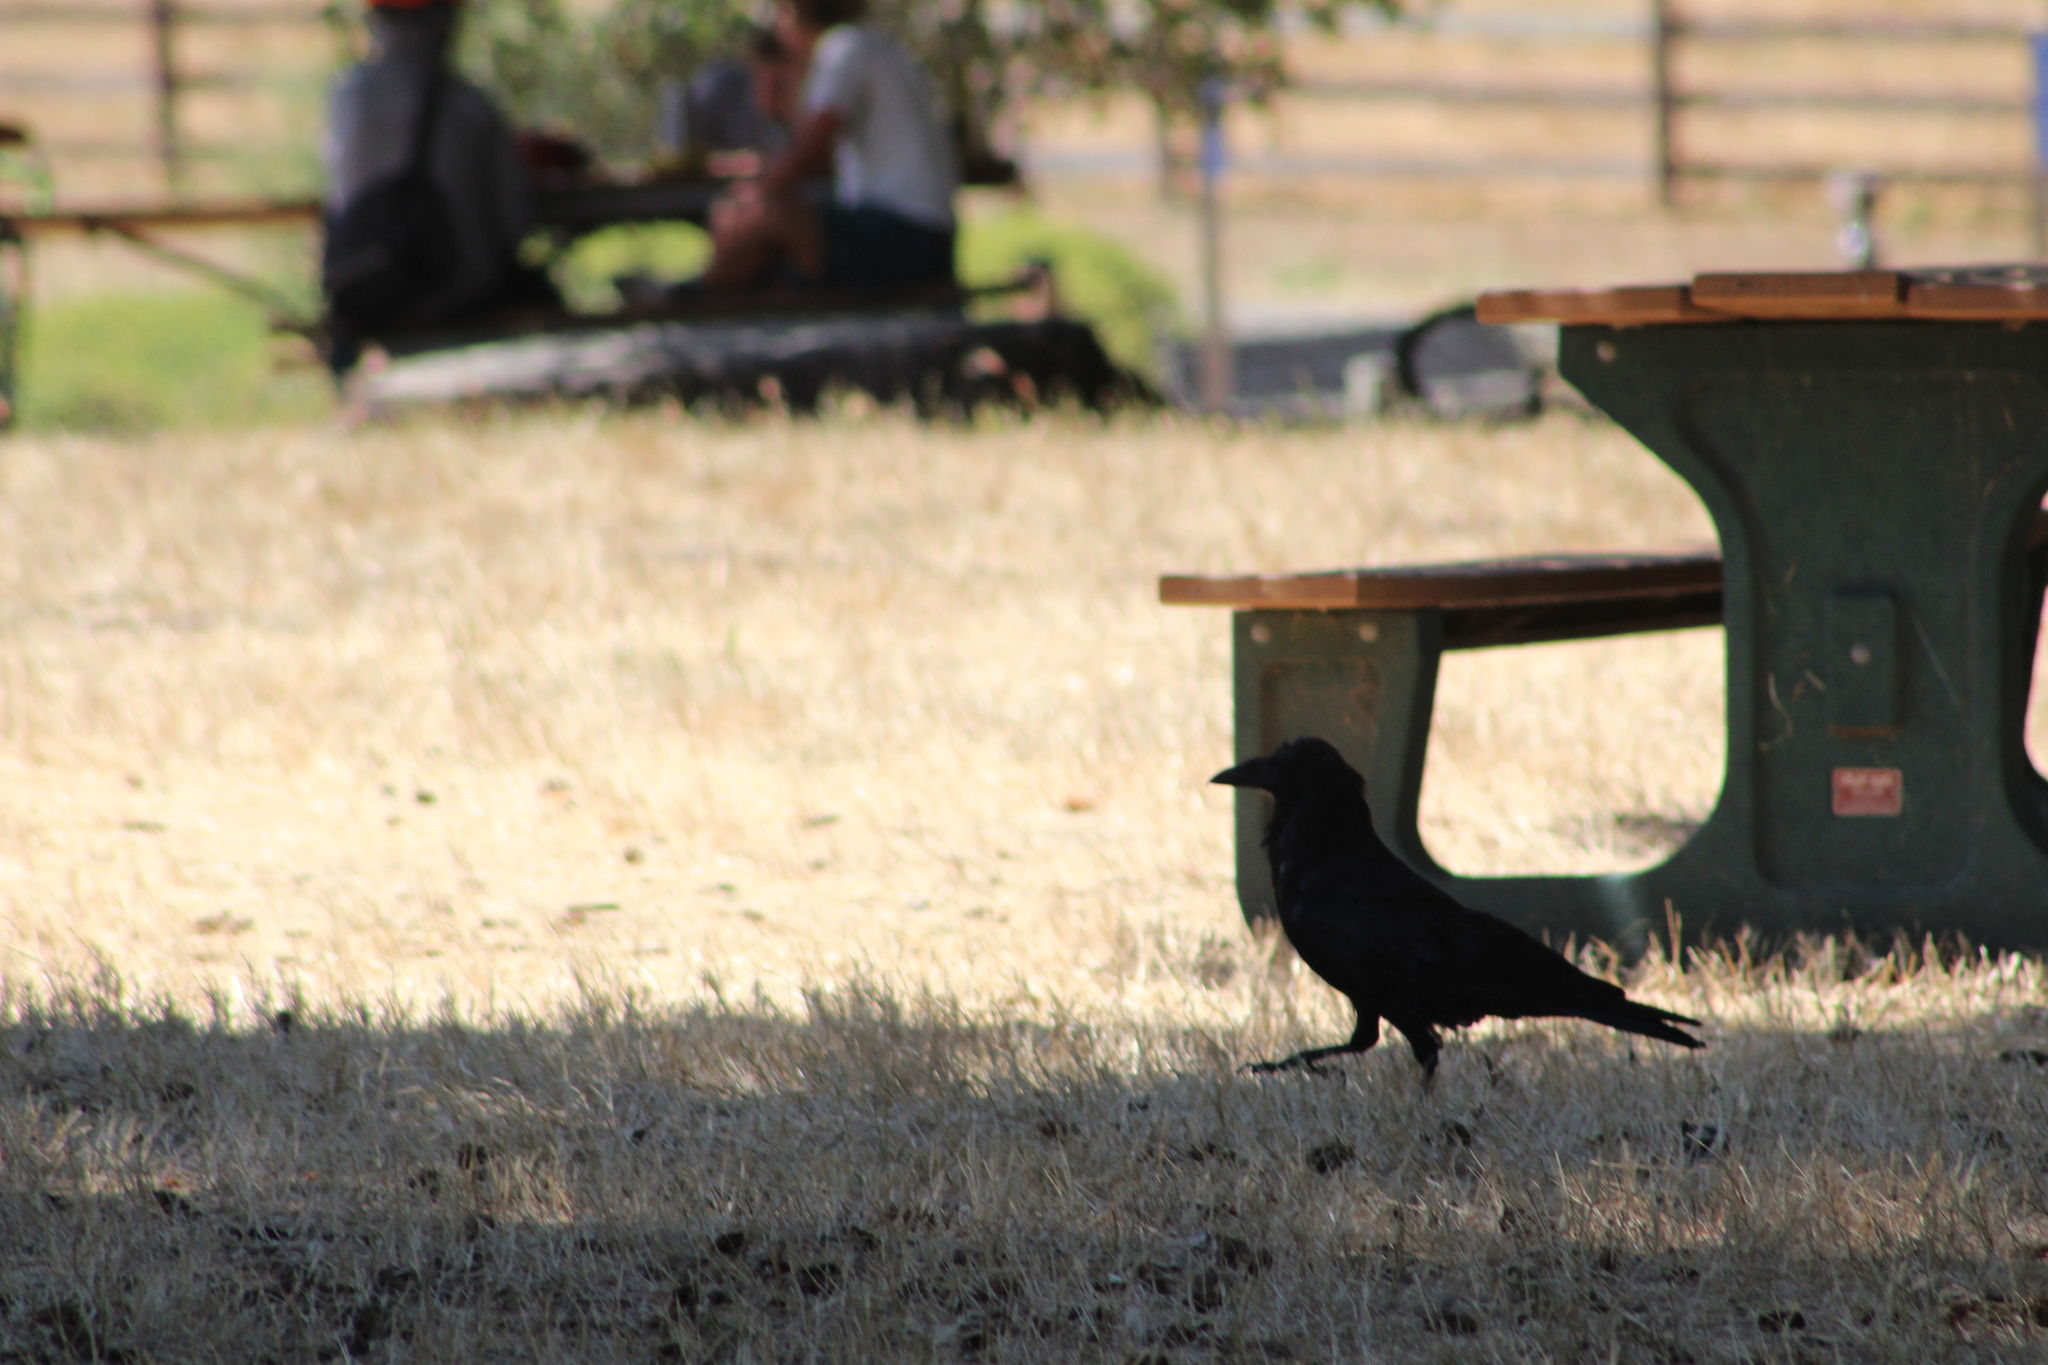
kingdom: Animalia
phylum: Chordata
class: Aves
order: Passeriformes
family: Corvidae
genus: Corvus
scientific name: Corvus corax
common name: Common raven
